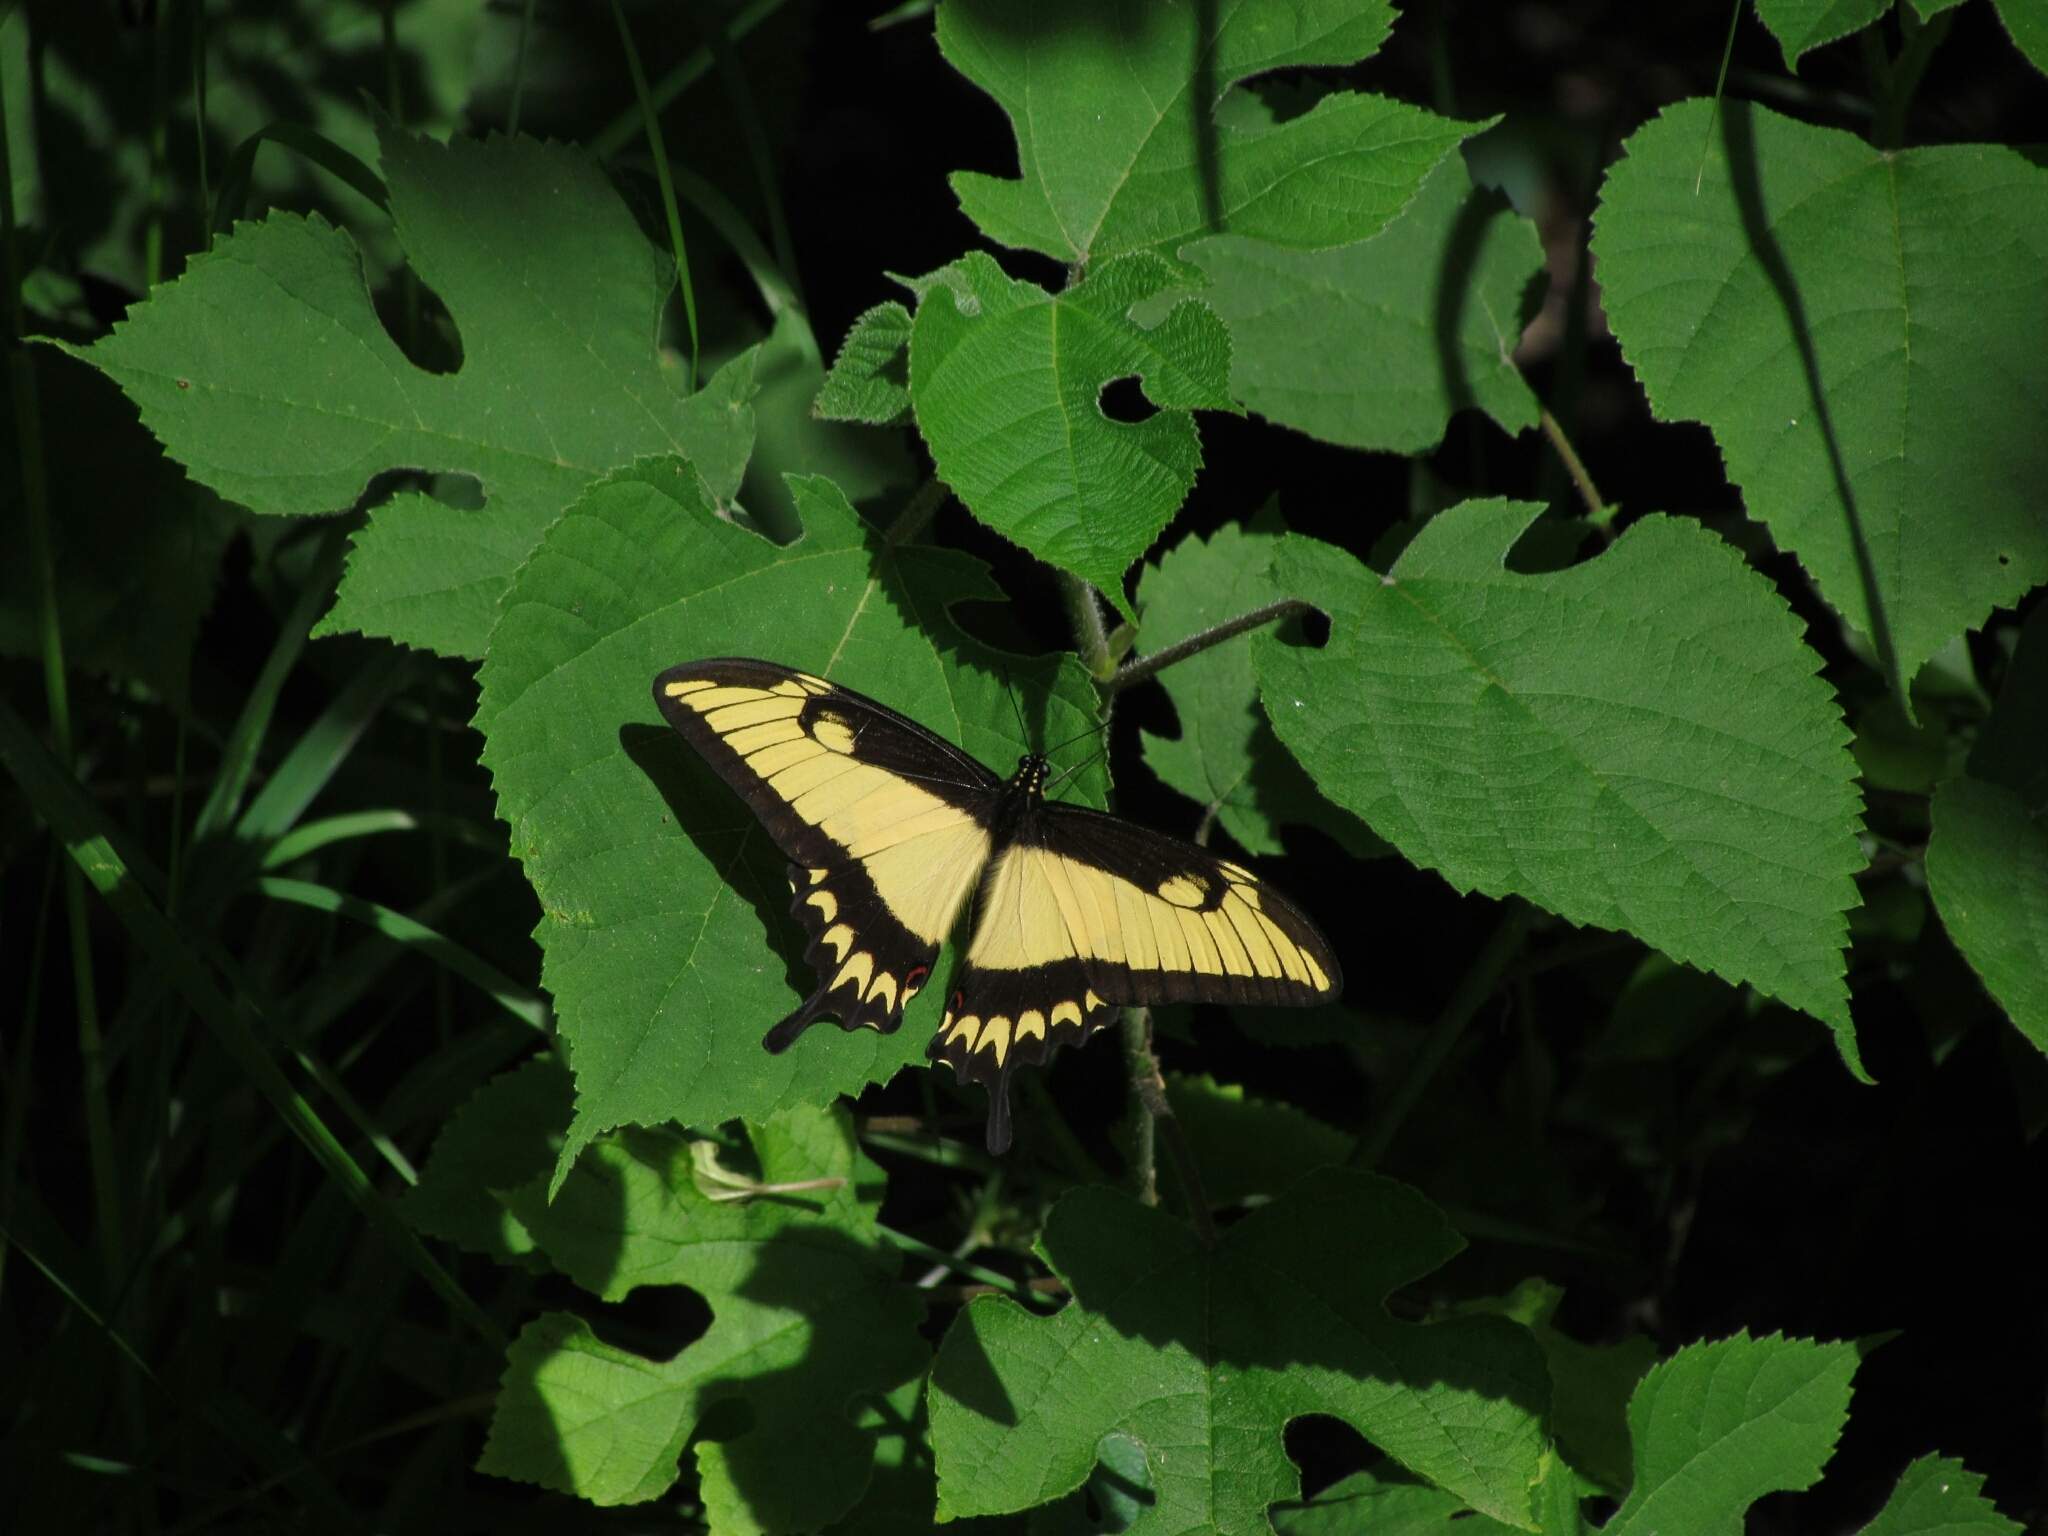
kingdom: Animalia
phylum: Arthropoda
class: Insecta
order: Lepidoptera
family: Papilionidae
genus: Papilio
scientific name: Papilio astyalus
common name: Astyalus swallowtail
